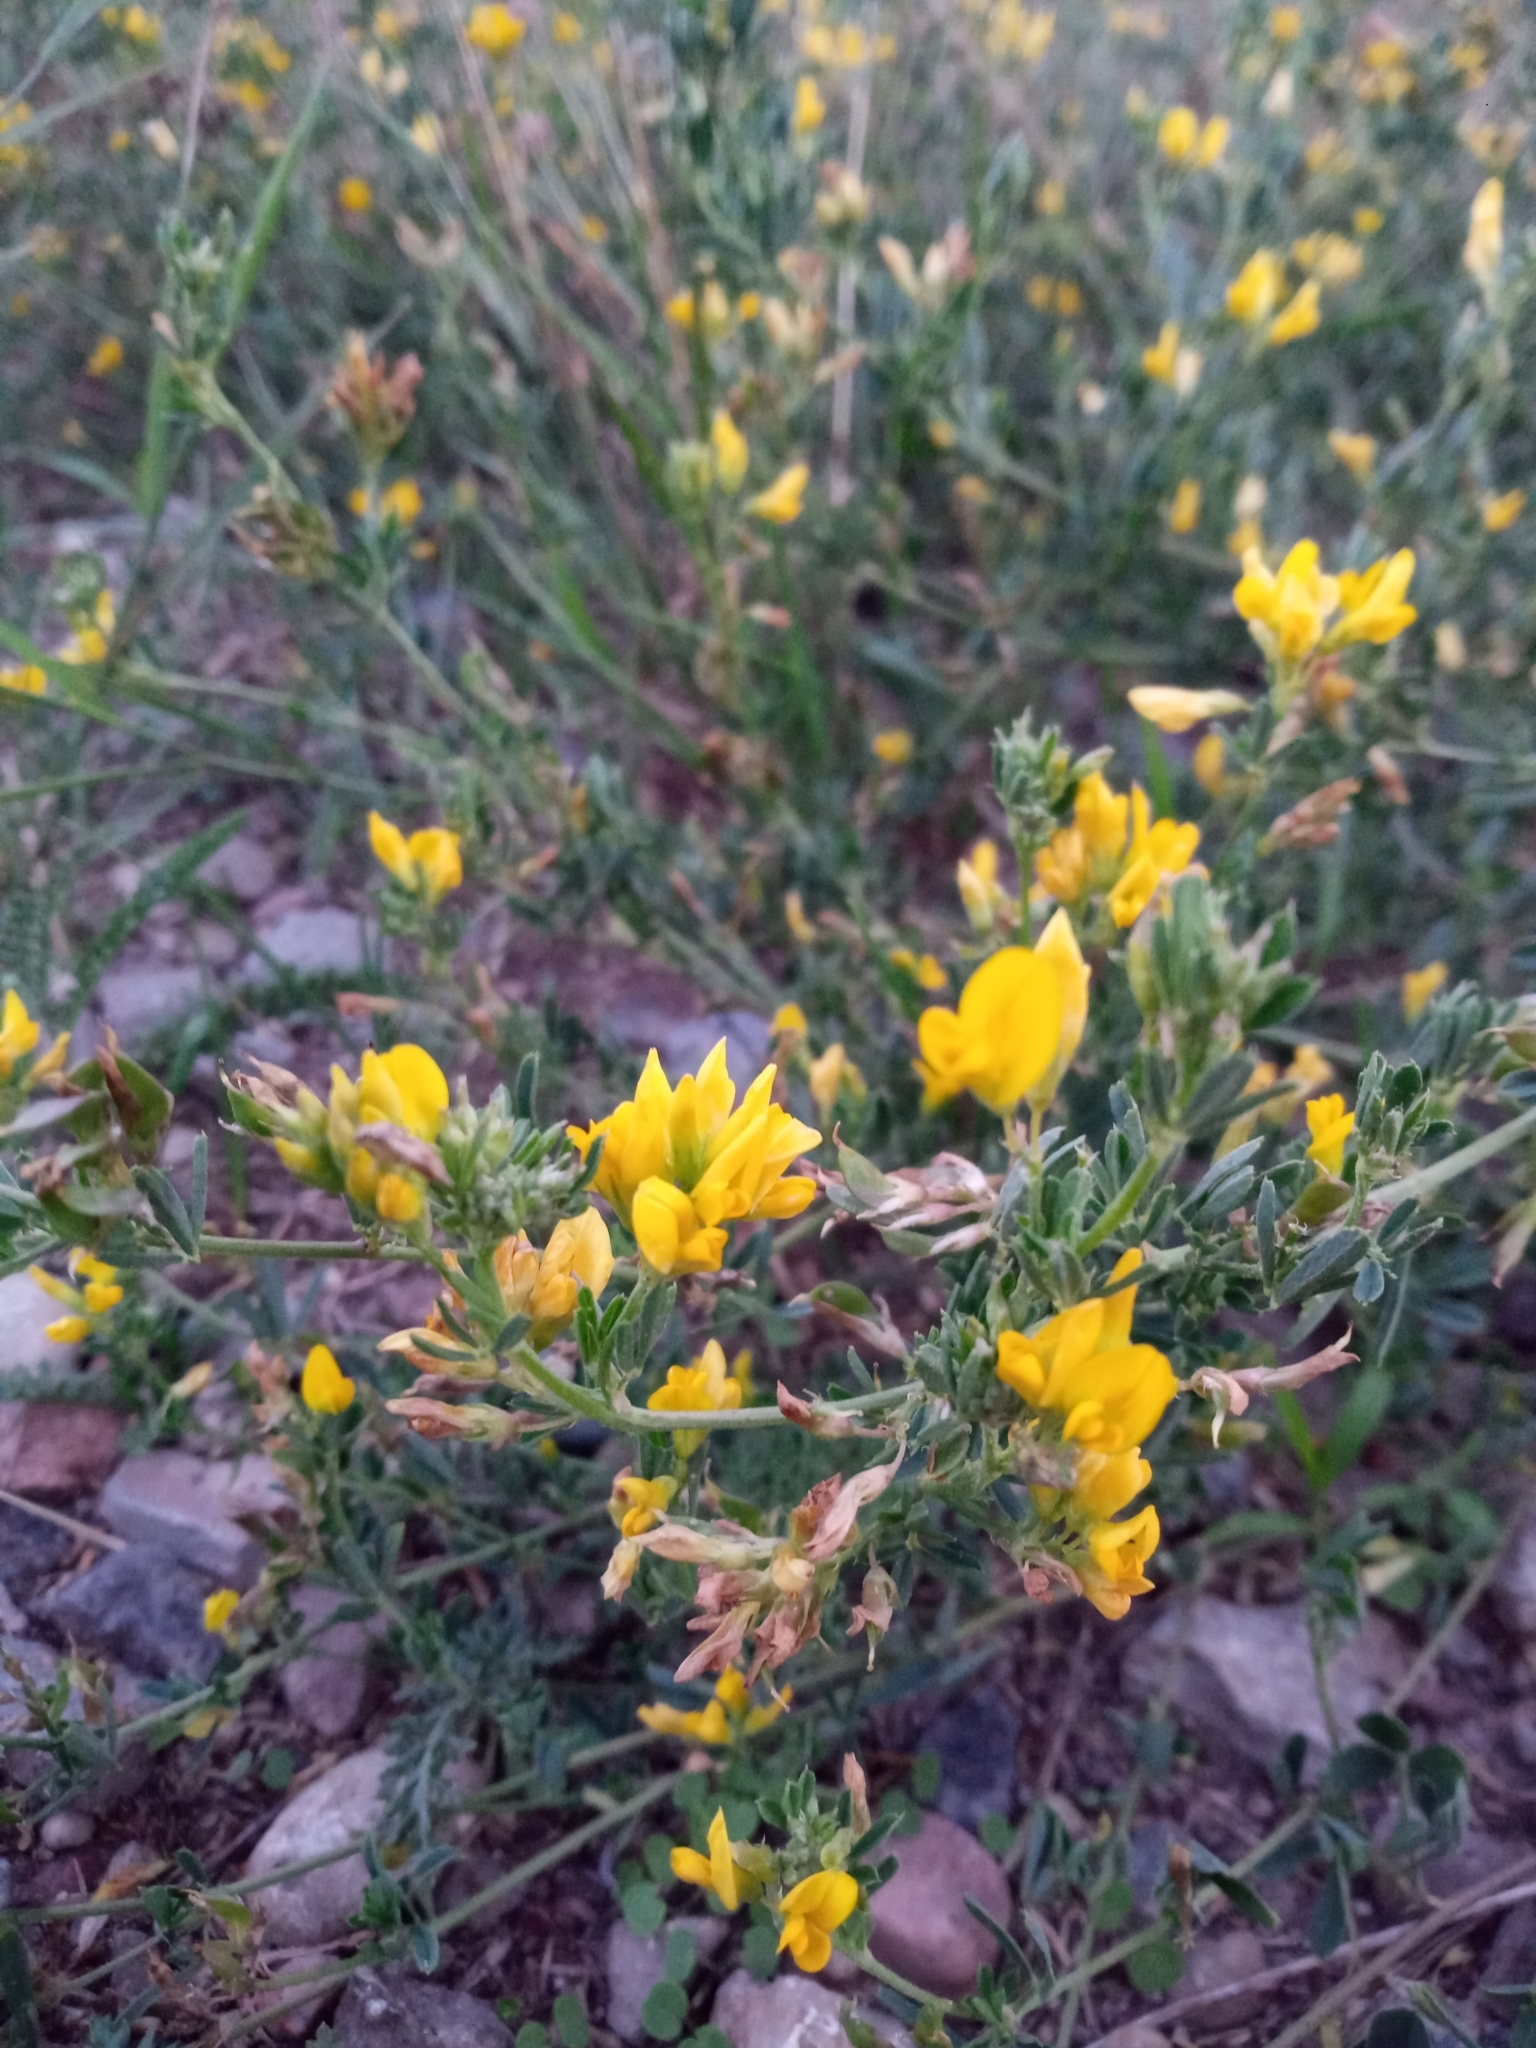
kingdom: Plantae
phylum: Tracheophyta
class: Magnoliopsida
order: Fabales
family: Fabaceae
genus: Medicago
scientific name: Medicago falcata
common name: Sickle medick
